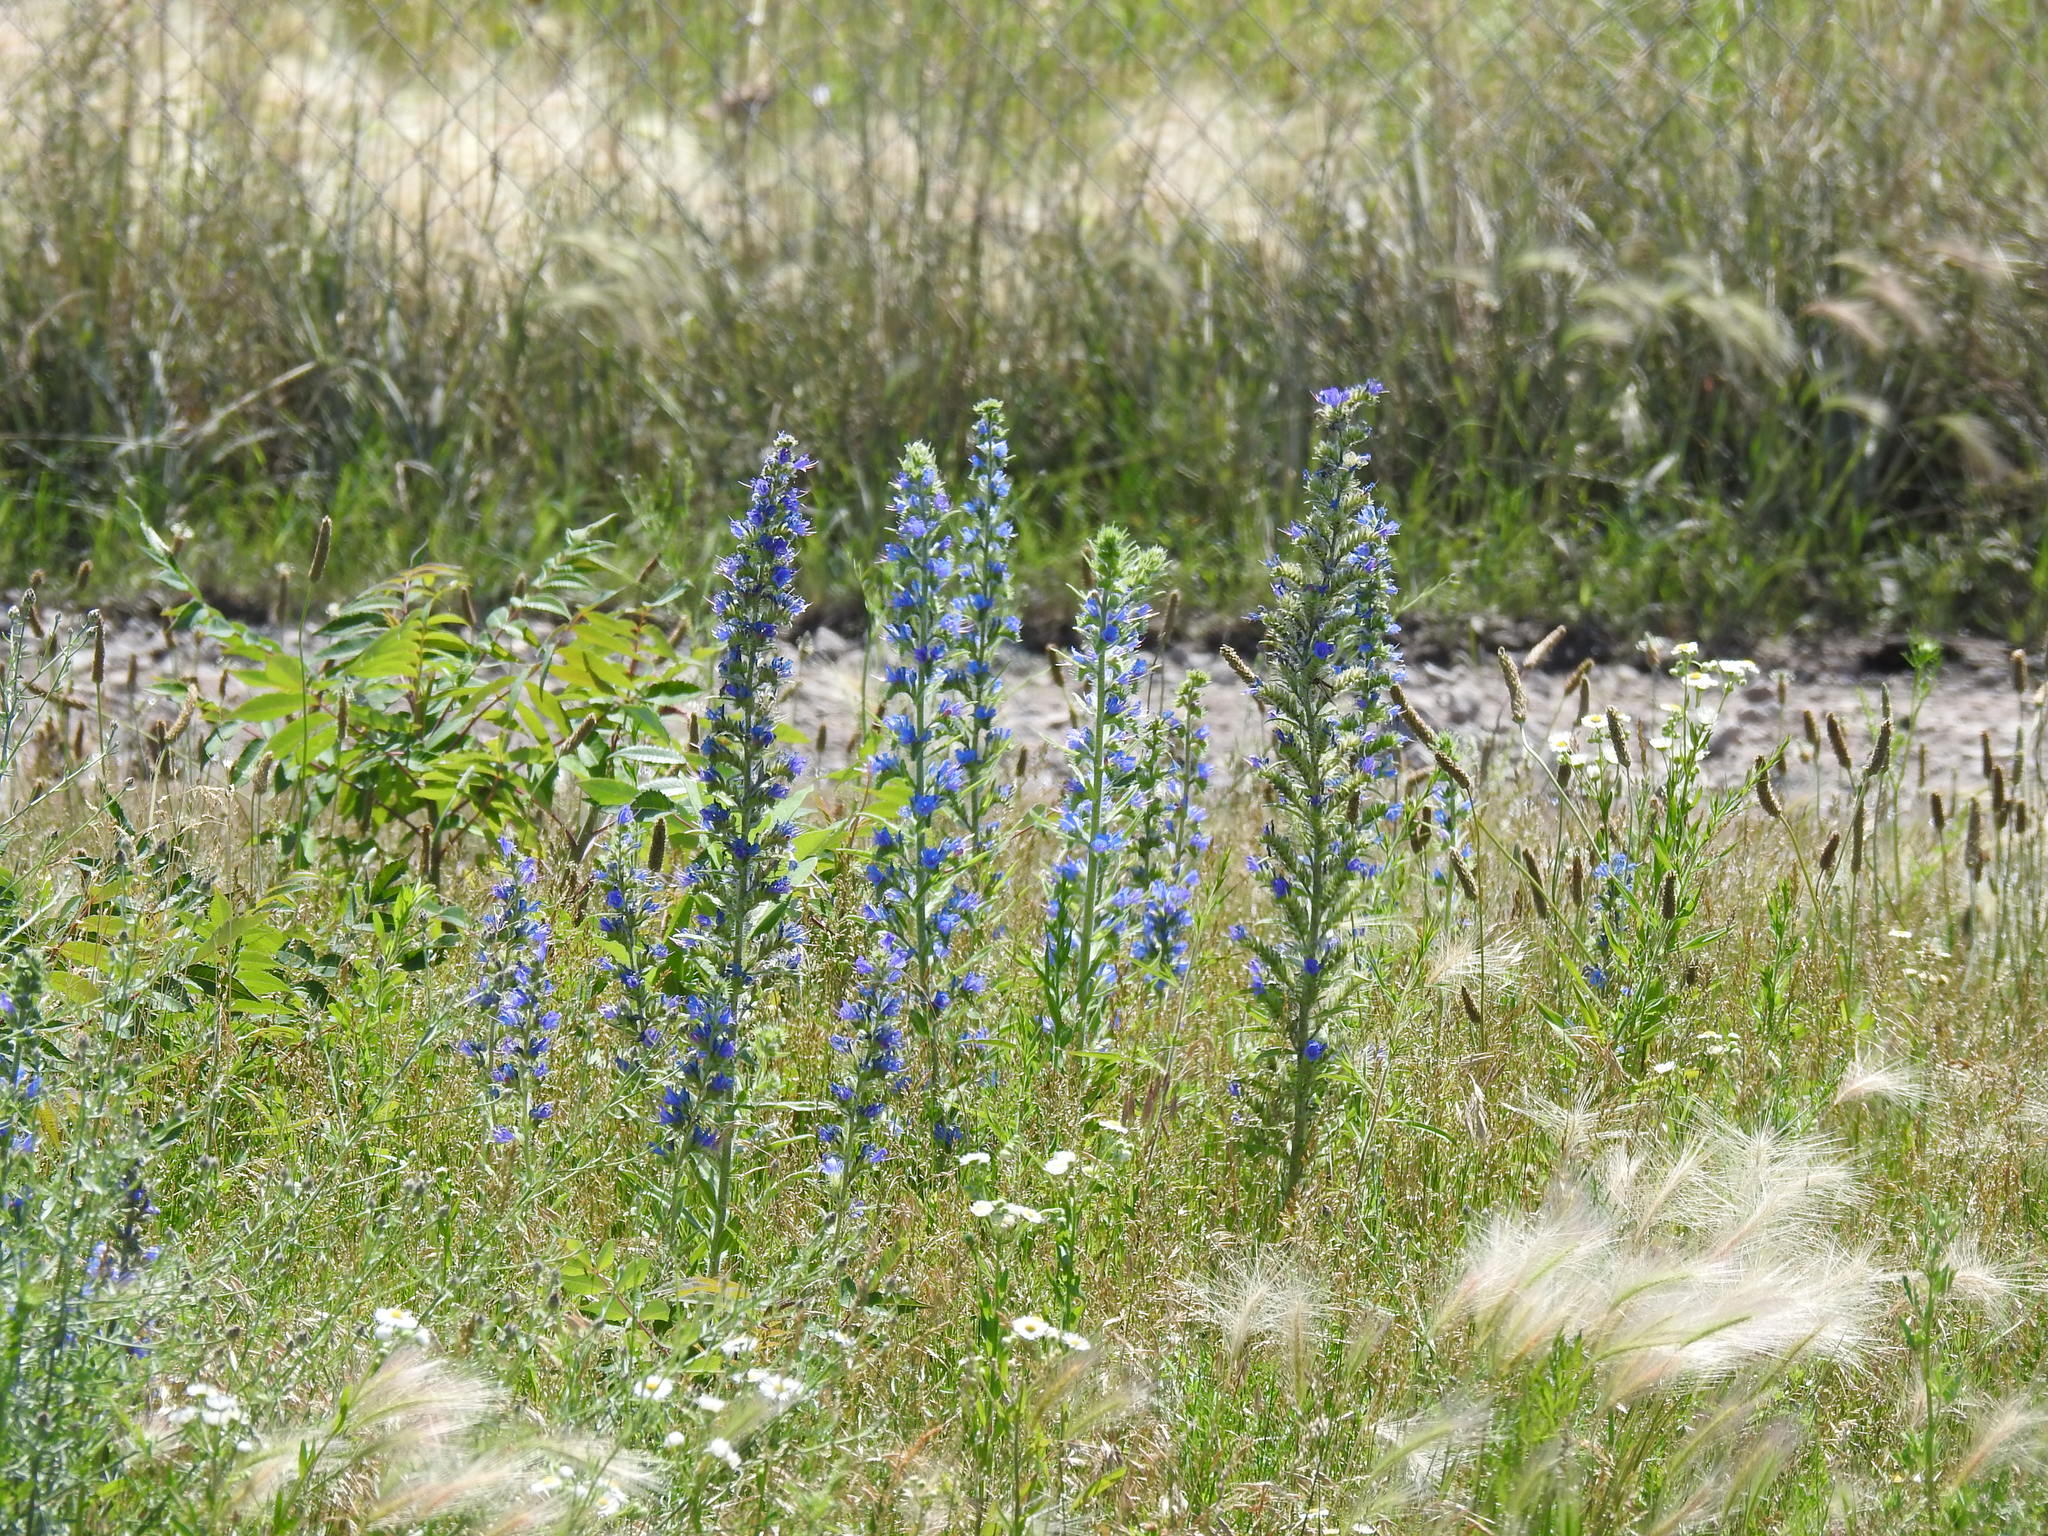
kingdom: Plantae
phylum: Tracheophyta
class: Magnoliopsida
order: Boraginales
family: Boraginaceae
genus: Echium
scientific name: Echium vulgare
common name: Common viper's bugloss
